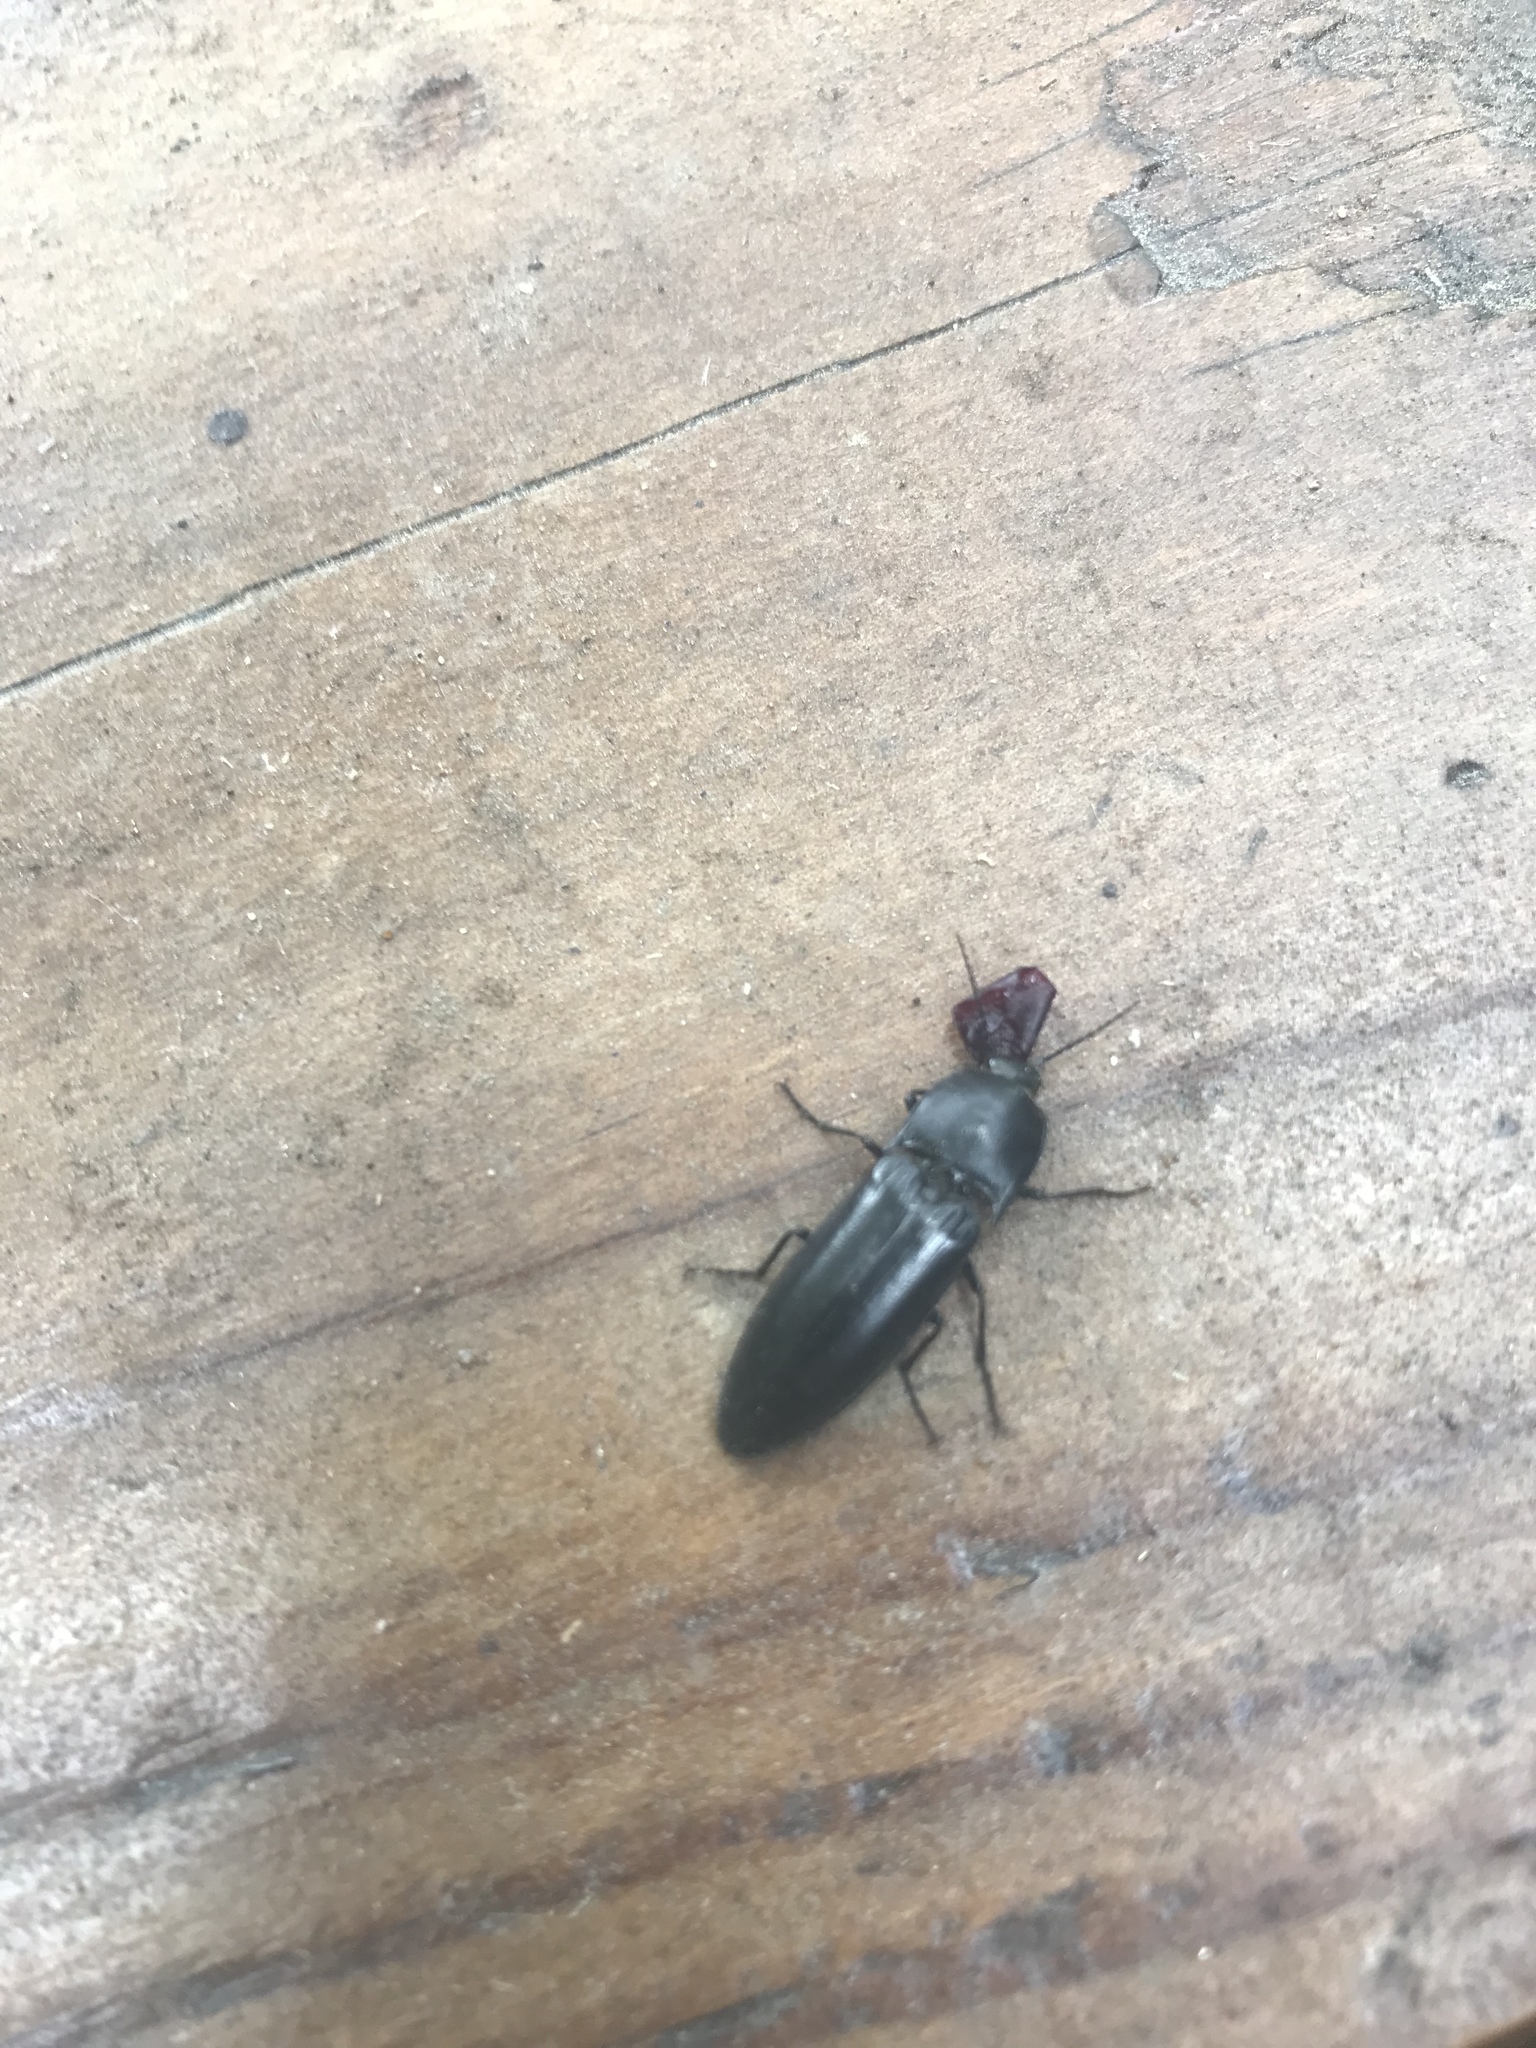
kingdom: Animalia
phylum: Arthropoda
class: Insecta
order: Coleoptera
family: Elateridae
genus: Melanactes
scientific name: Melanactes
